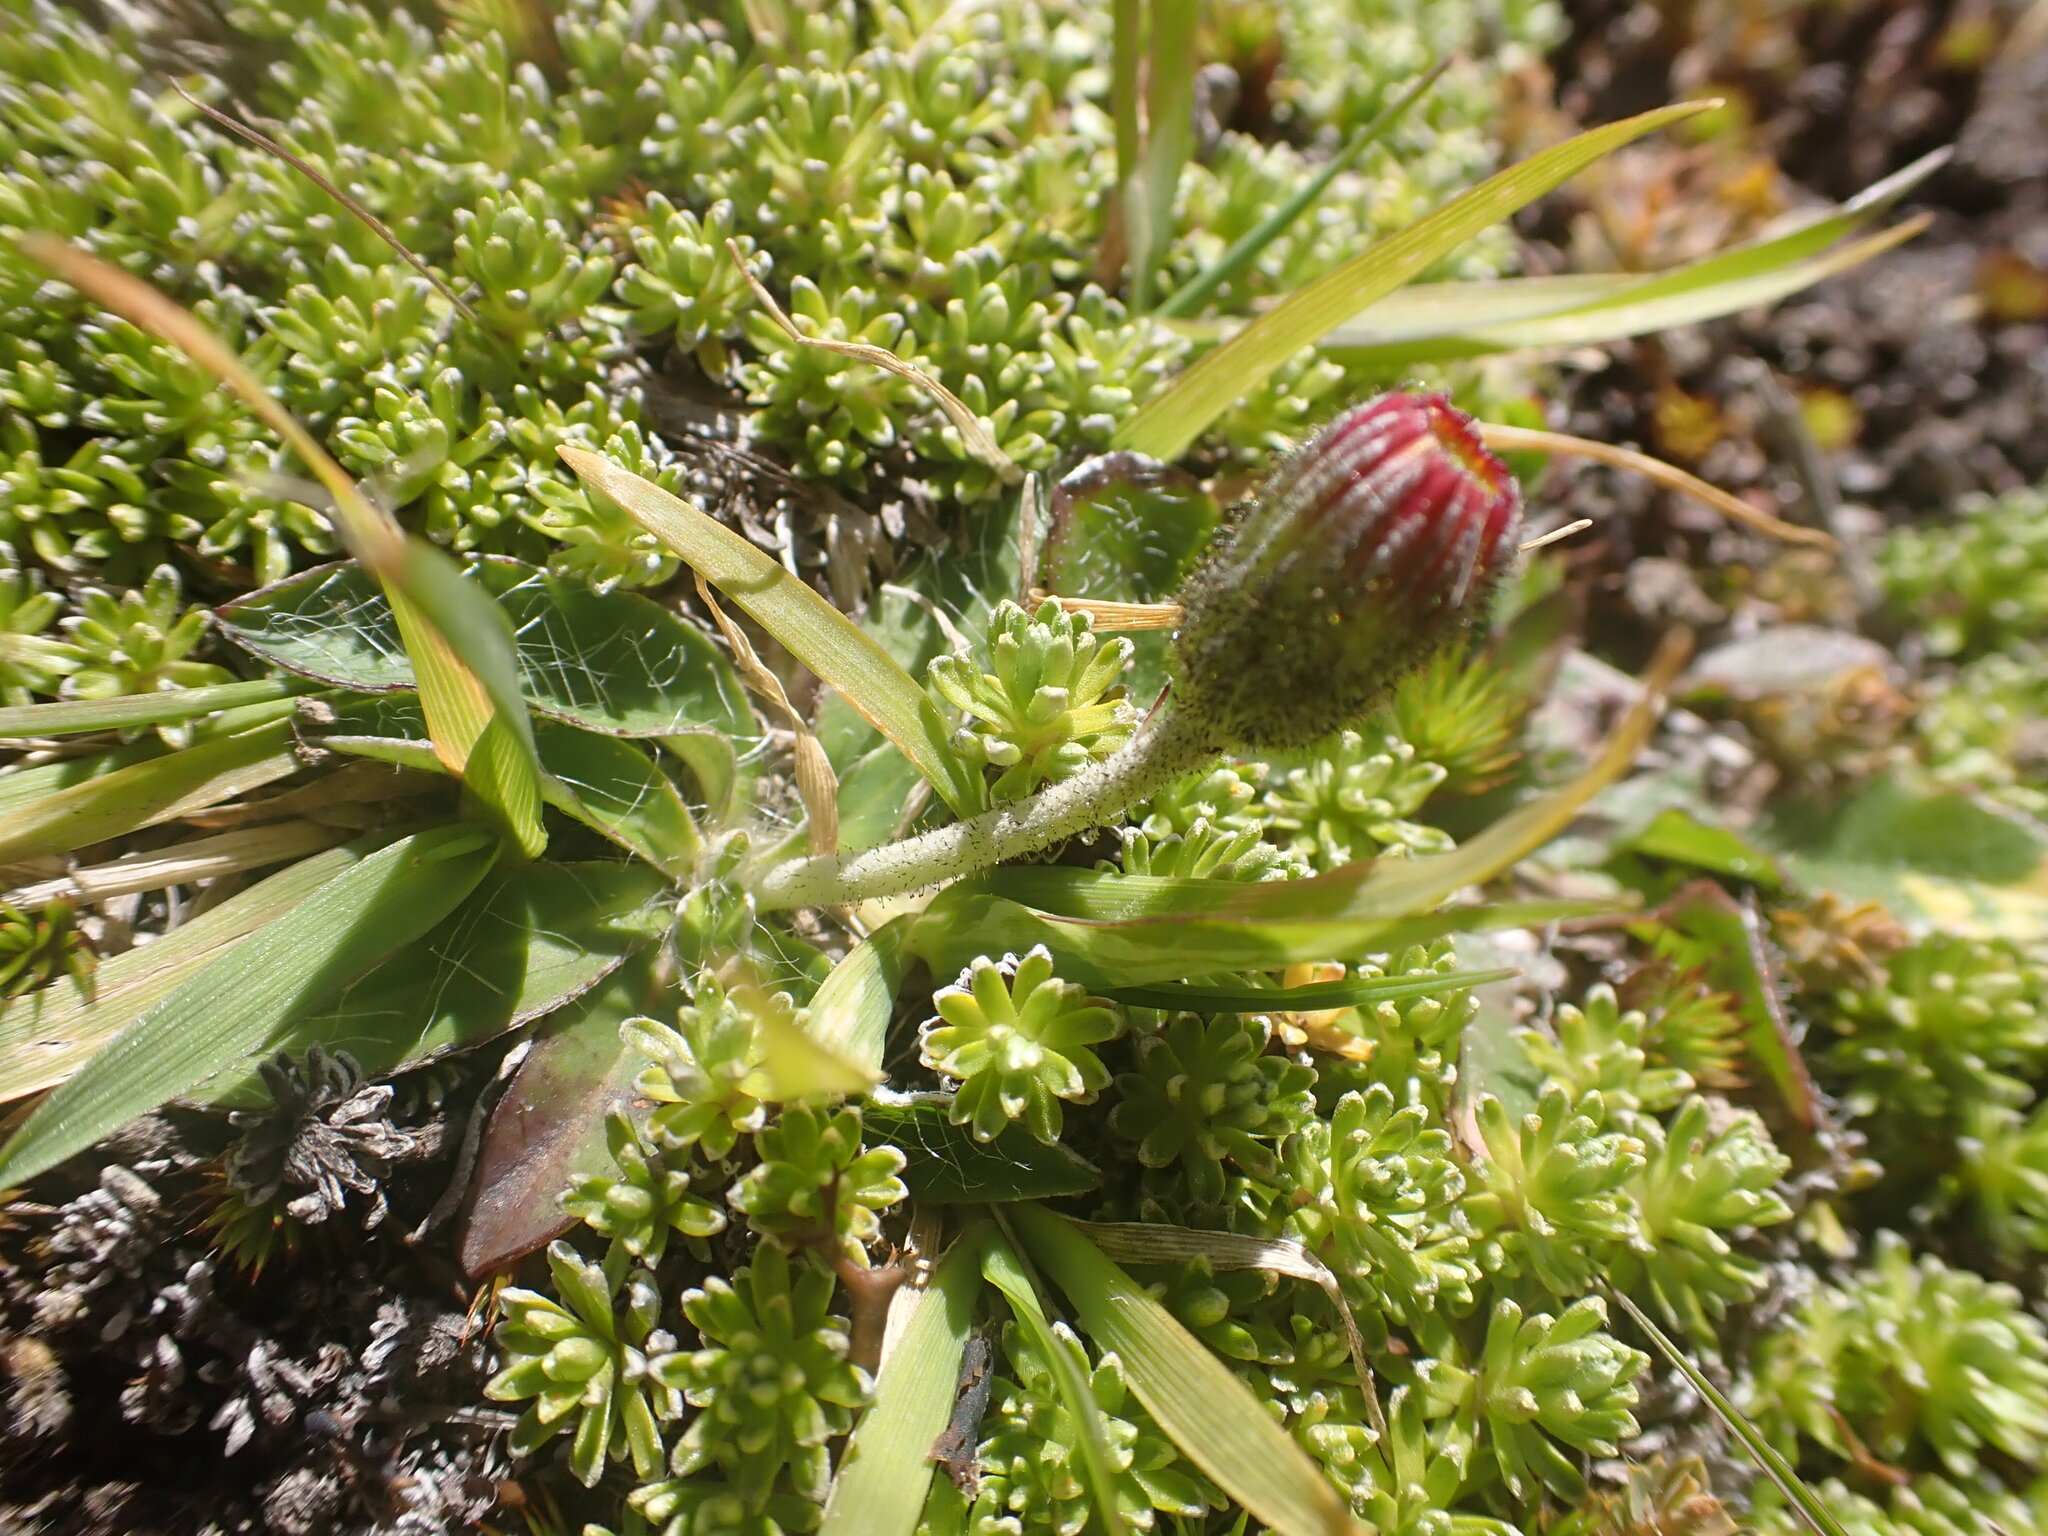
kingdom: Plantae
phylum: Tracheophyta
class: Magnoliopsida
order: Asterales
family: Asteraceae
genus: Pilosella
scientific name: Pilosella officinarum
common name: Mouse-ear hawkweed
